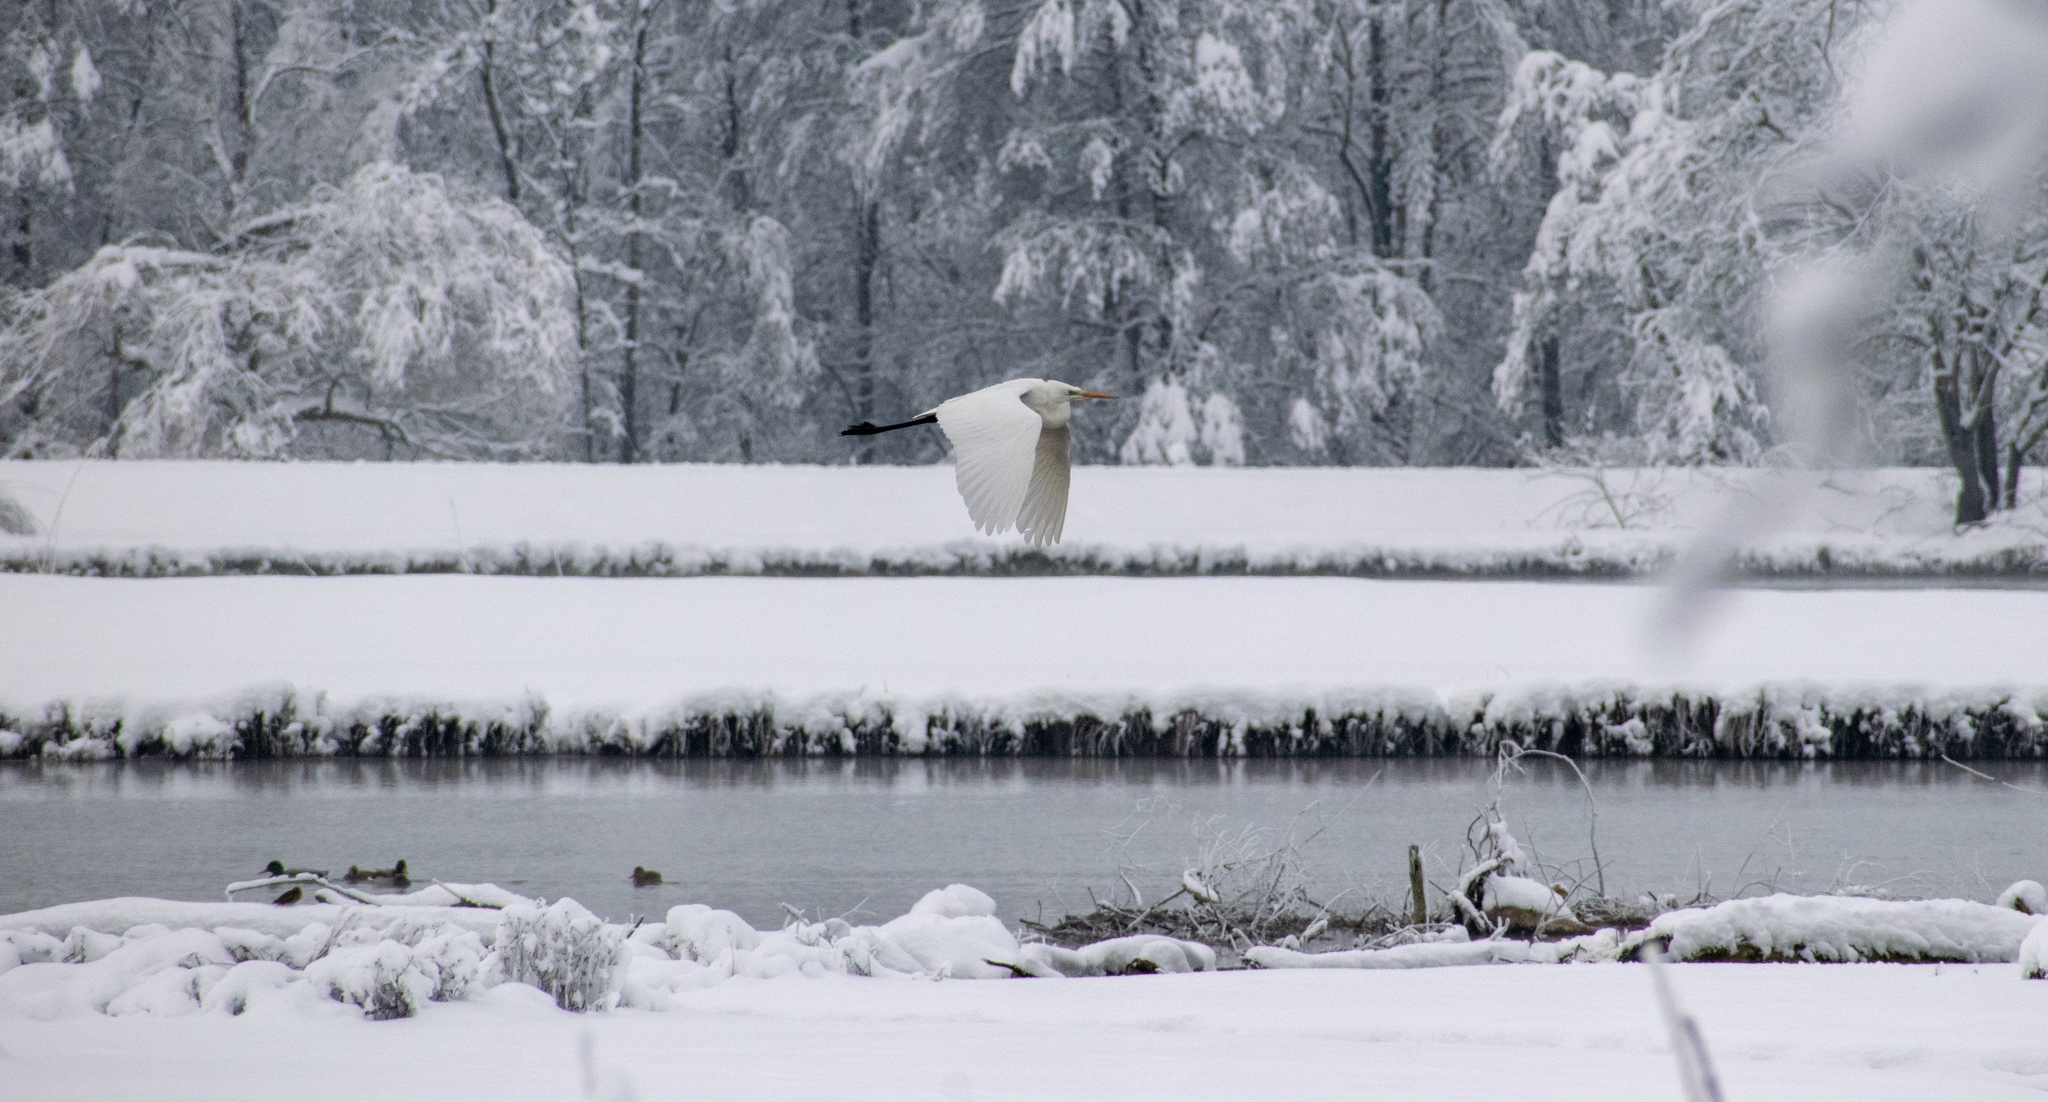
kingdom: Animalia
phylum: Chordata
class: Aves
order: Pelecaniformes
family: Ardeidae
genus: Ardea
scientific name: Ardea alba
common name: Great egret
